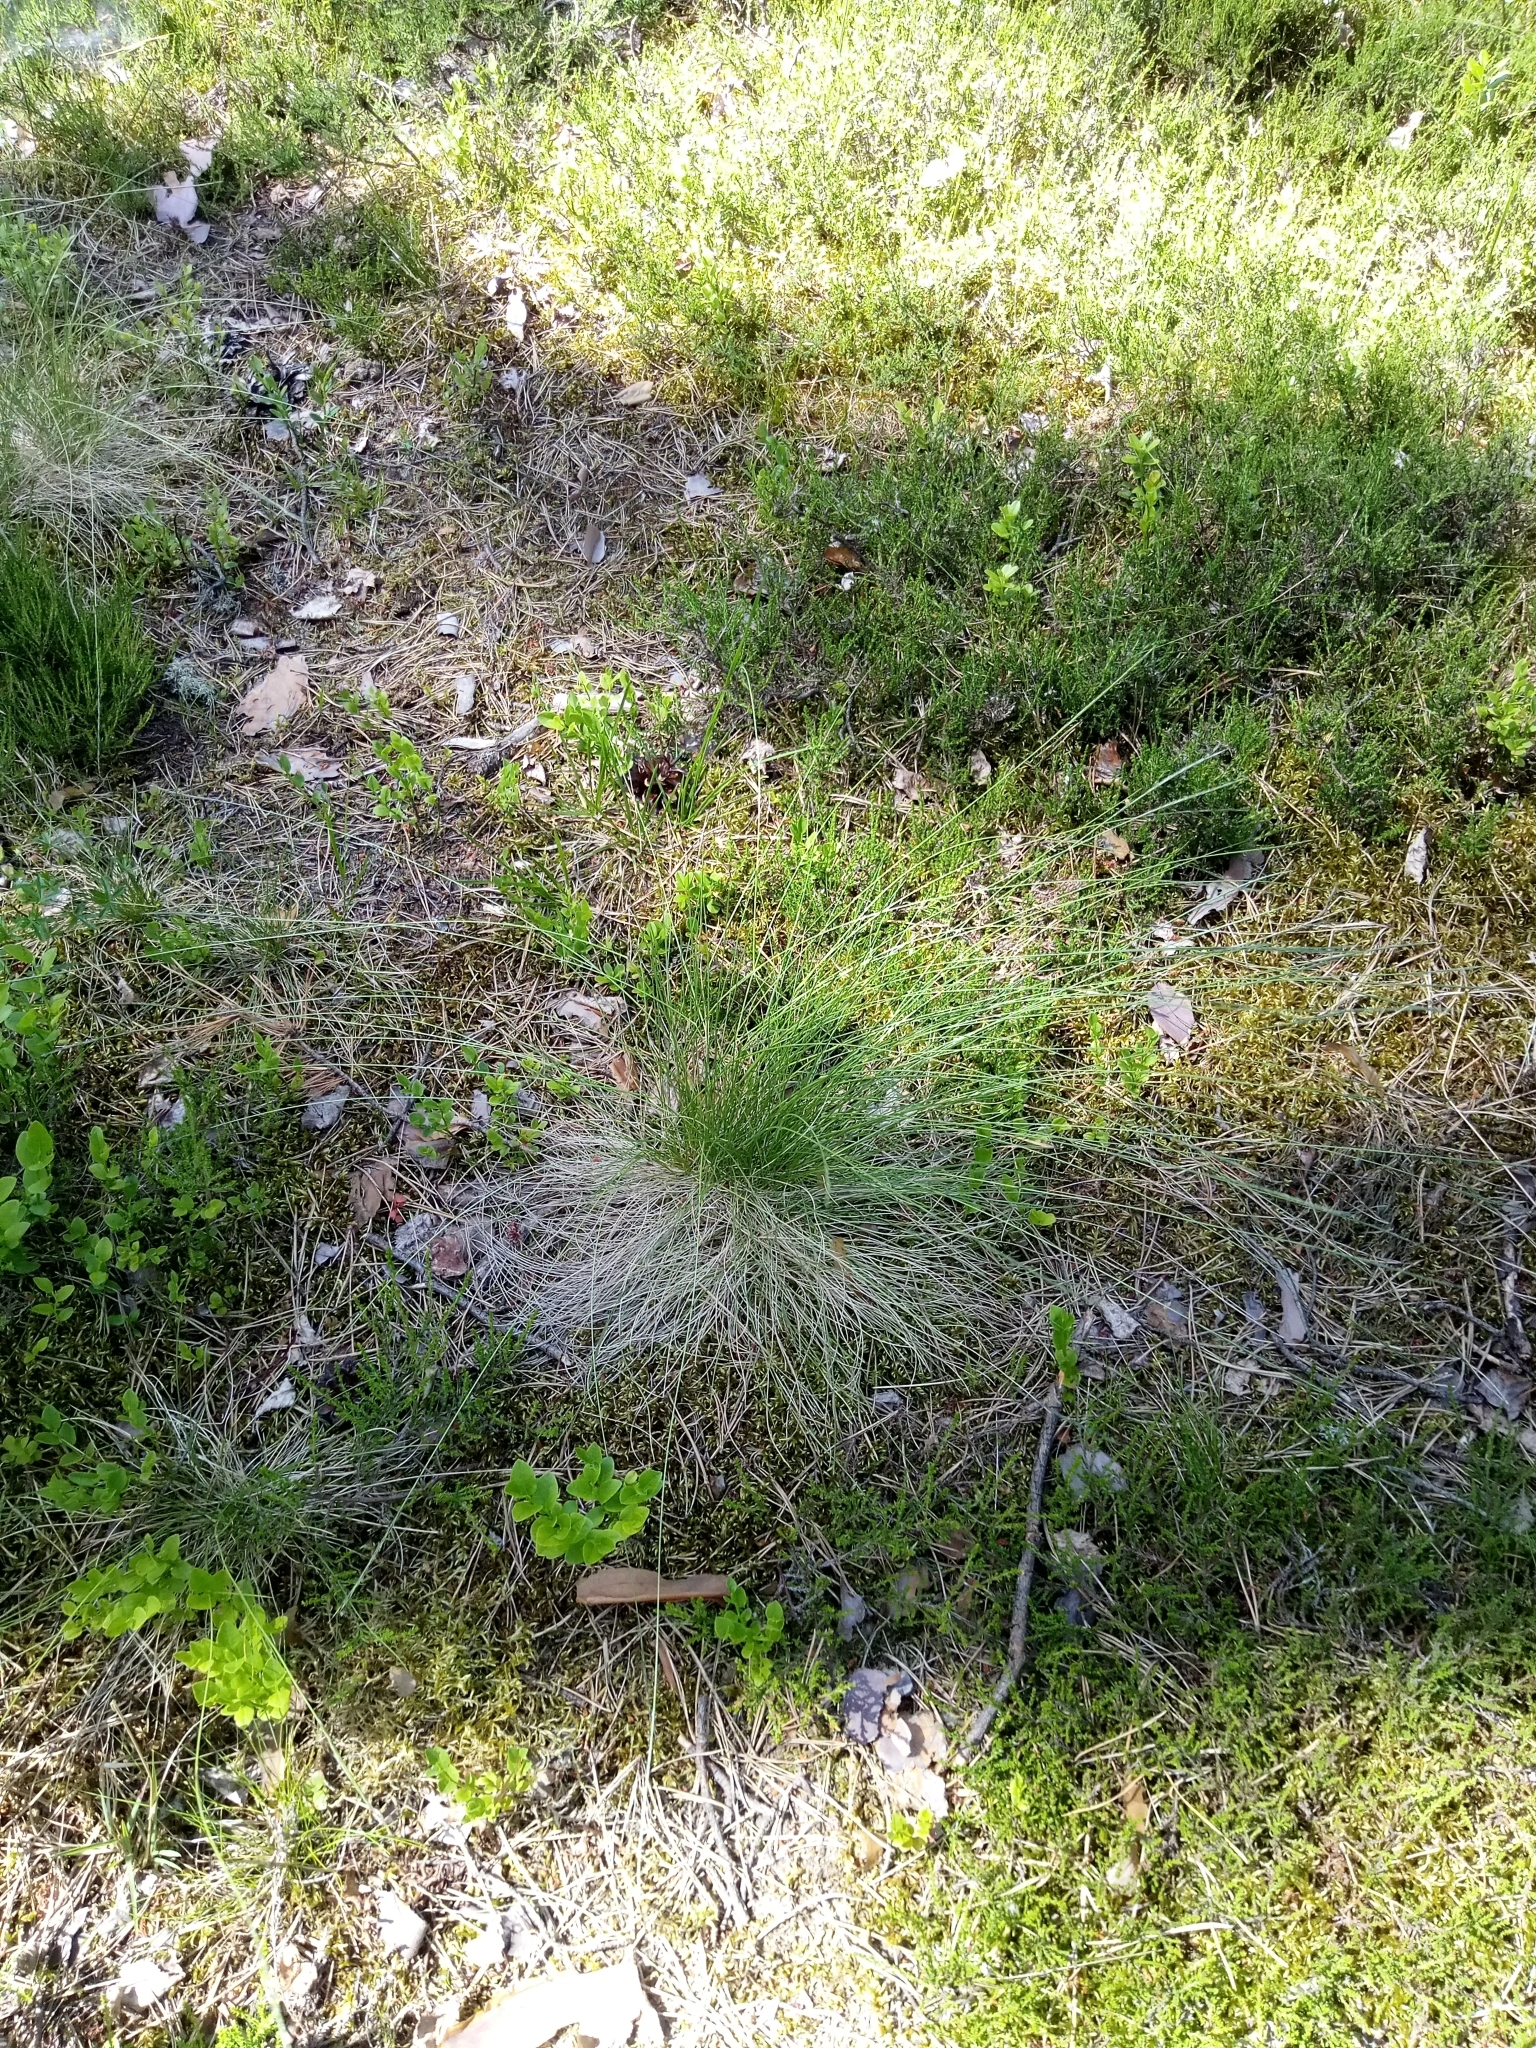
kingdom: Plantae
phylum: Tracheophyta
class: Liliopsida
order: Poales
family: Poaceae
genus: Nardus
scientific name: Nardus stricta
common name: Mat-grass
